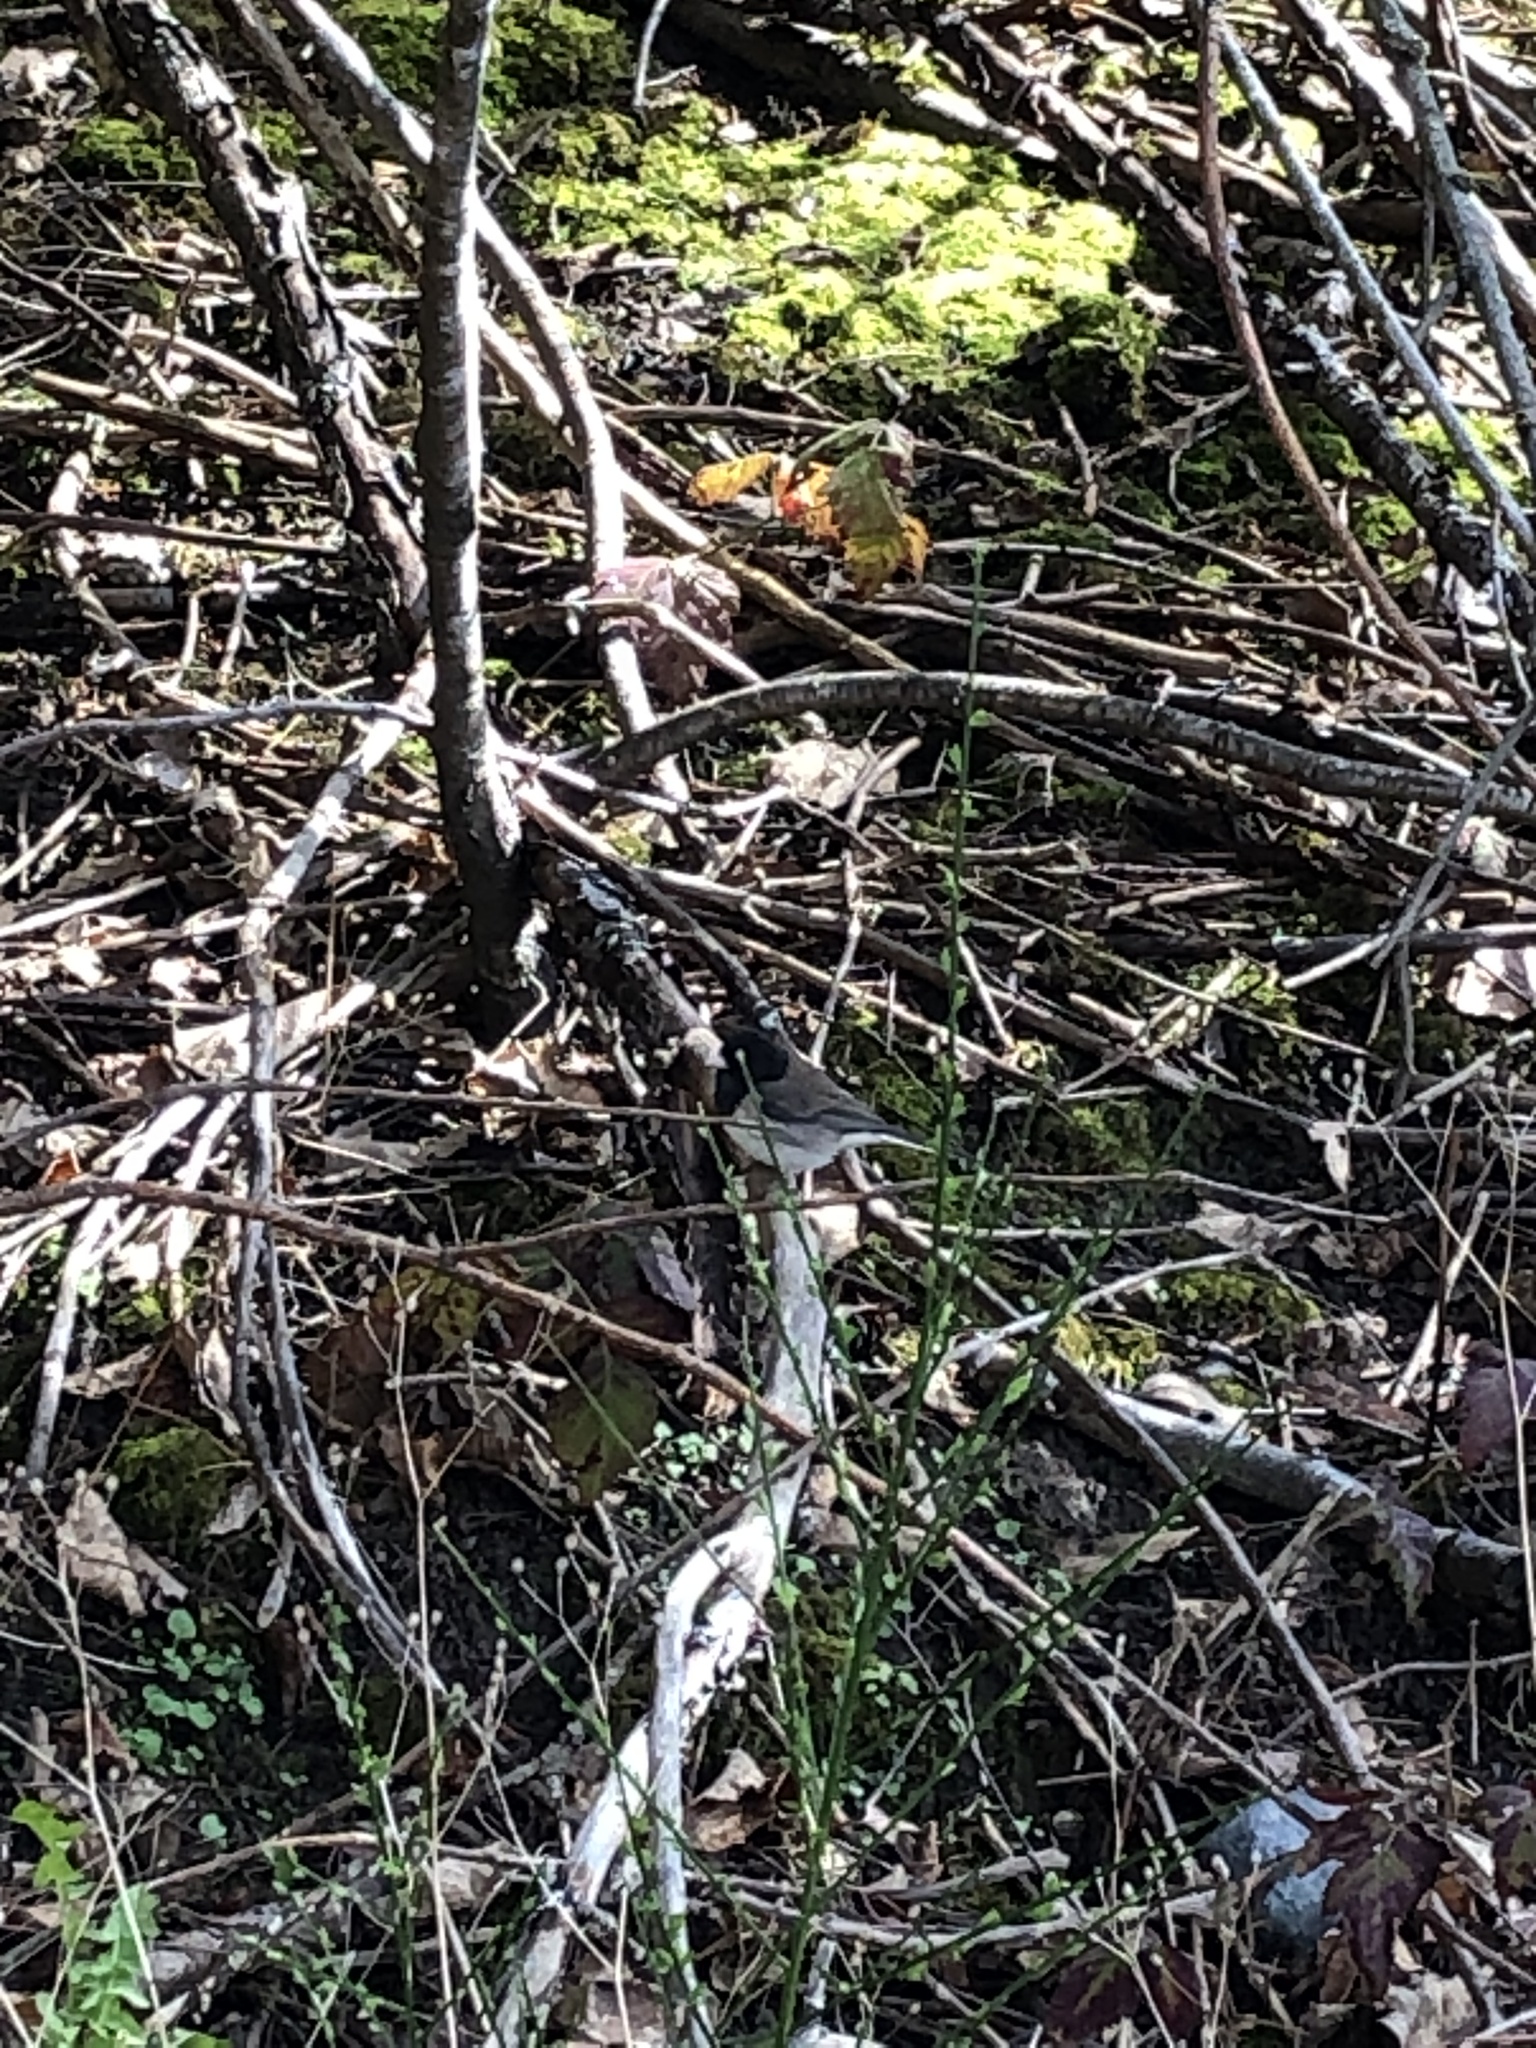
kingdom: Animalia
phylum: Chordata
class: Aves
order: Passeriformes
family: Passerellidae
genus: Junco
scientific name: Junco hyemalis
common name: Dark-eyed junco
